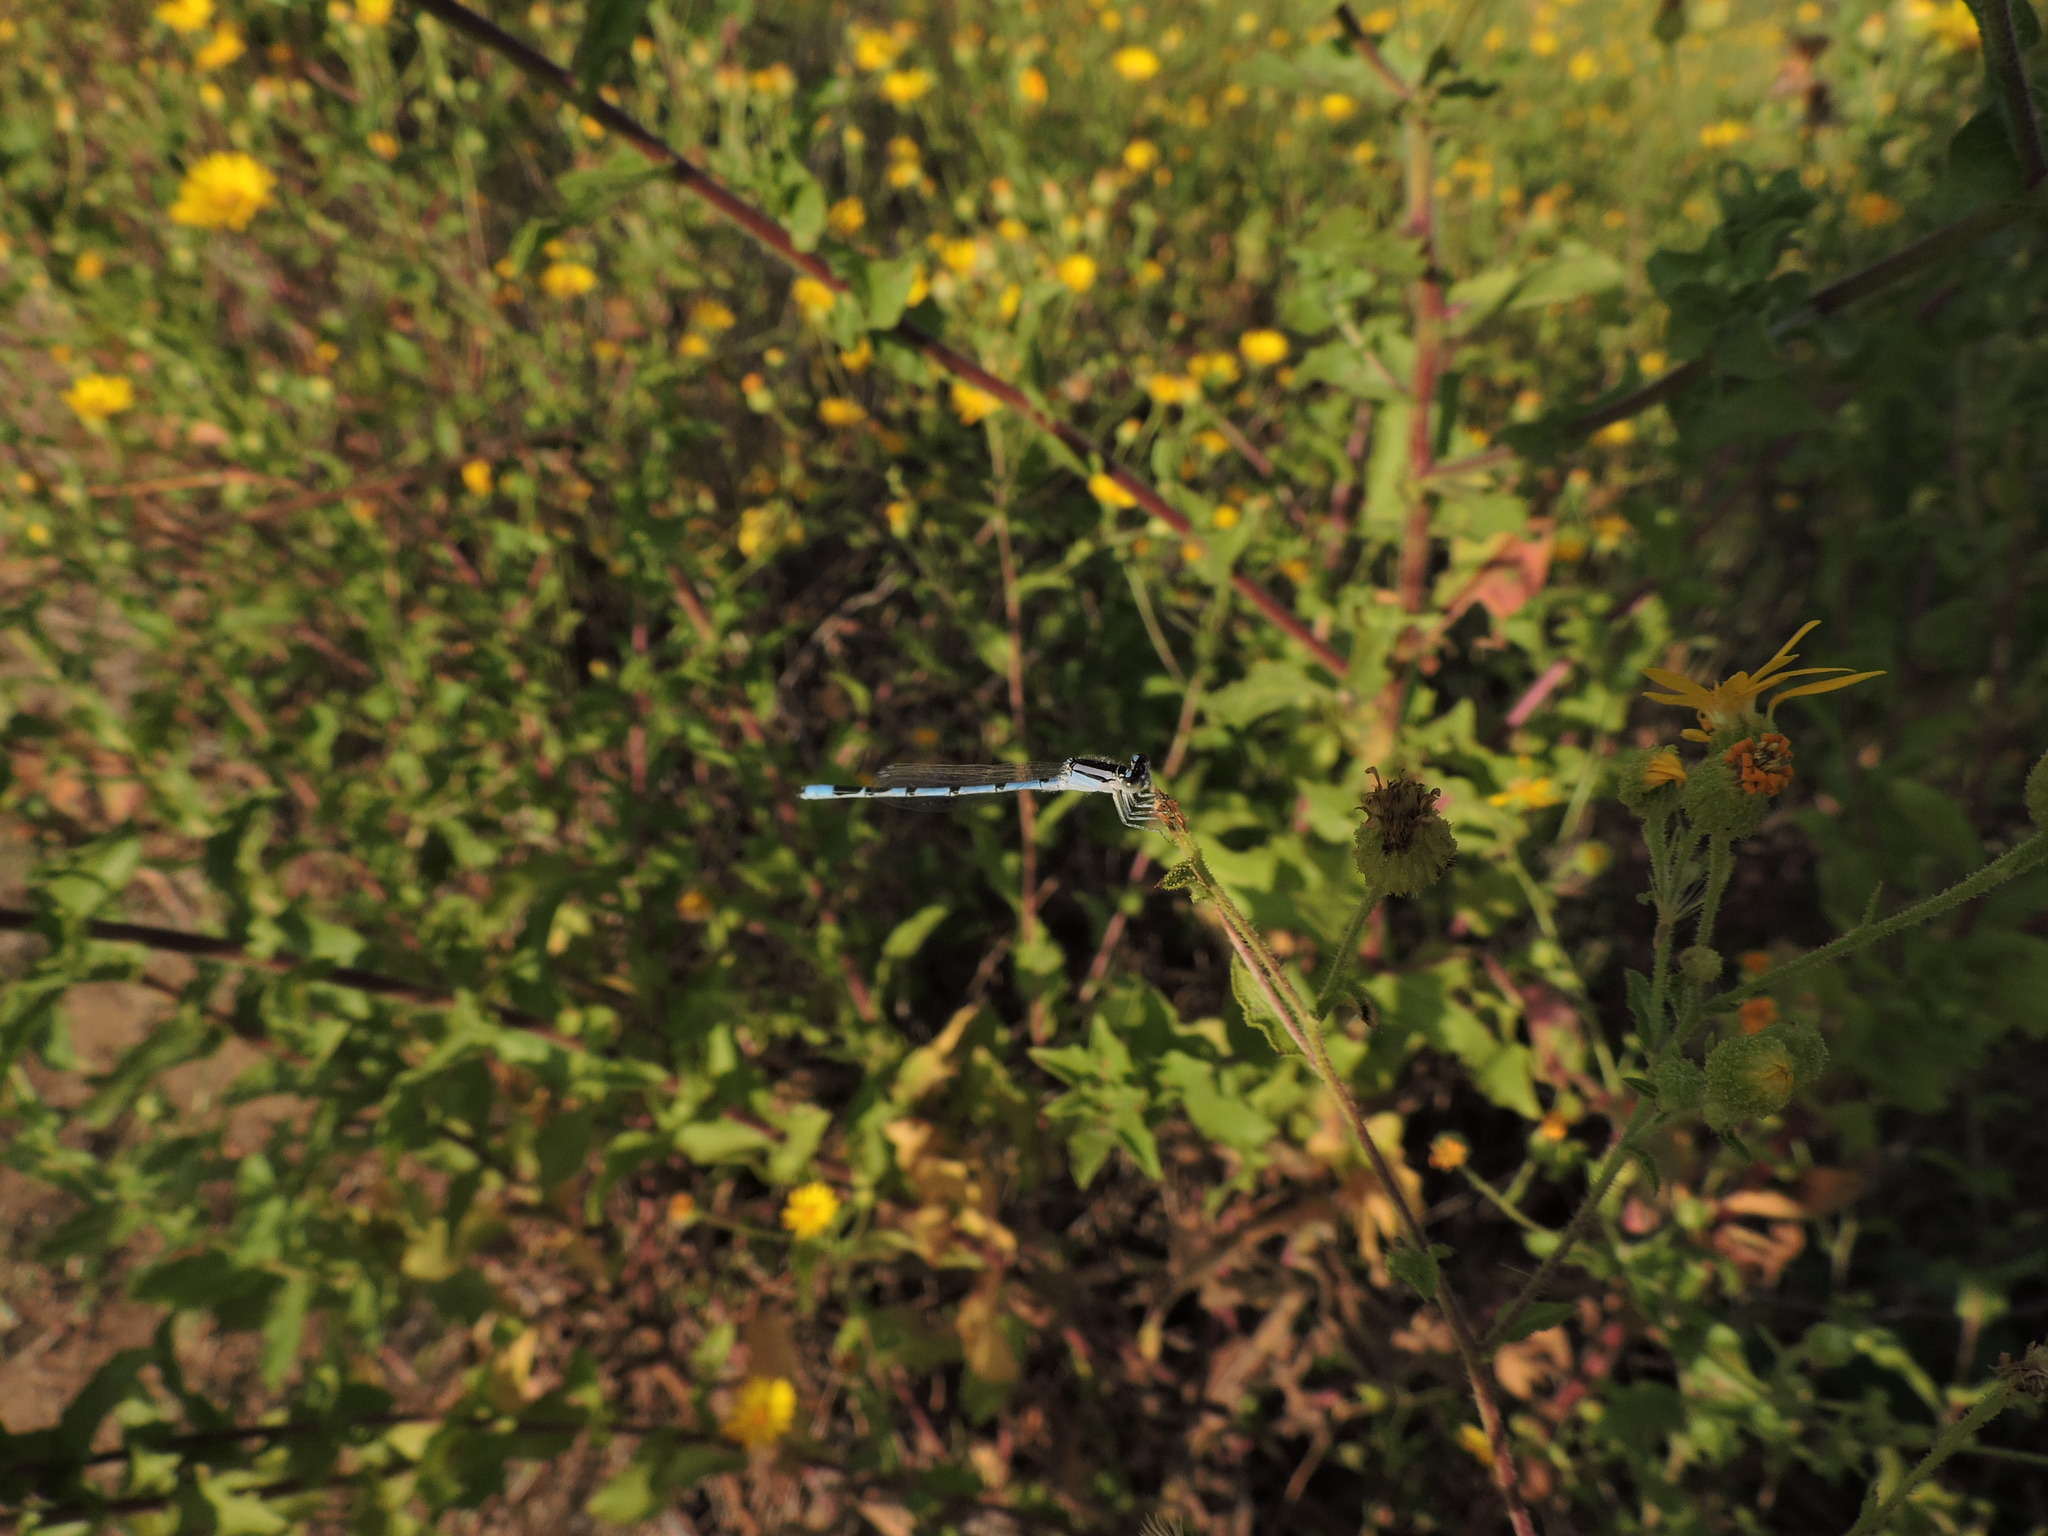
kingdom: Animalia
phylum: Arthropoda
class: Insecta
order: Odonata
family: Coenagrionidae
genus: Enallagma
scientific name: Enallagma basidens
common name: Double-striped bluet
